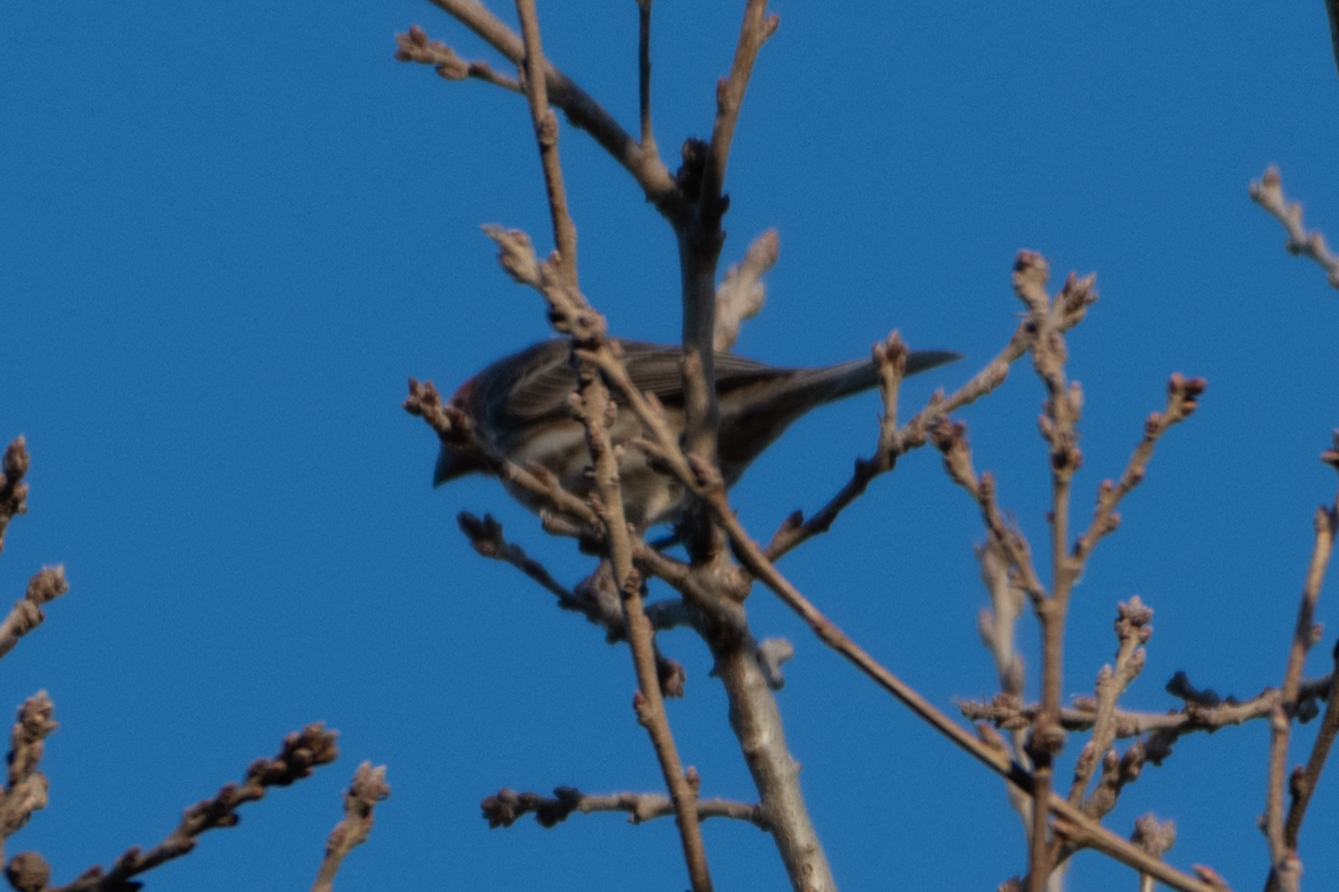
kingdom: Animalia
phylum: Chordata
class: Aves
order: Passeriformes
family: Fringillidae
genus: Haemorhous
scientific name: Haemorhous mexicanus
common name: House finch
